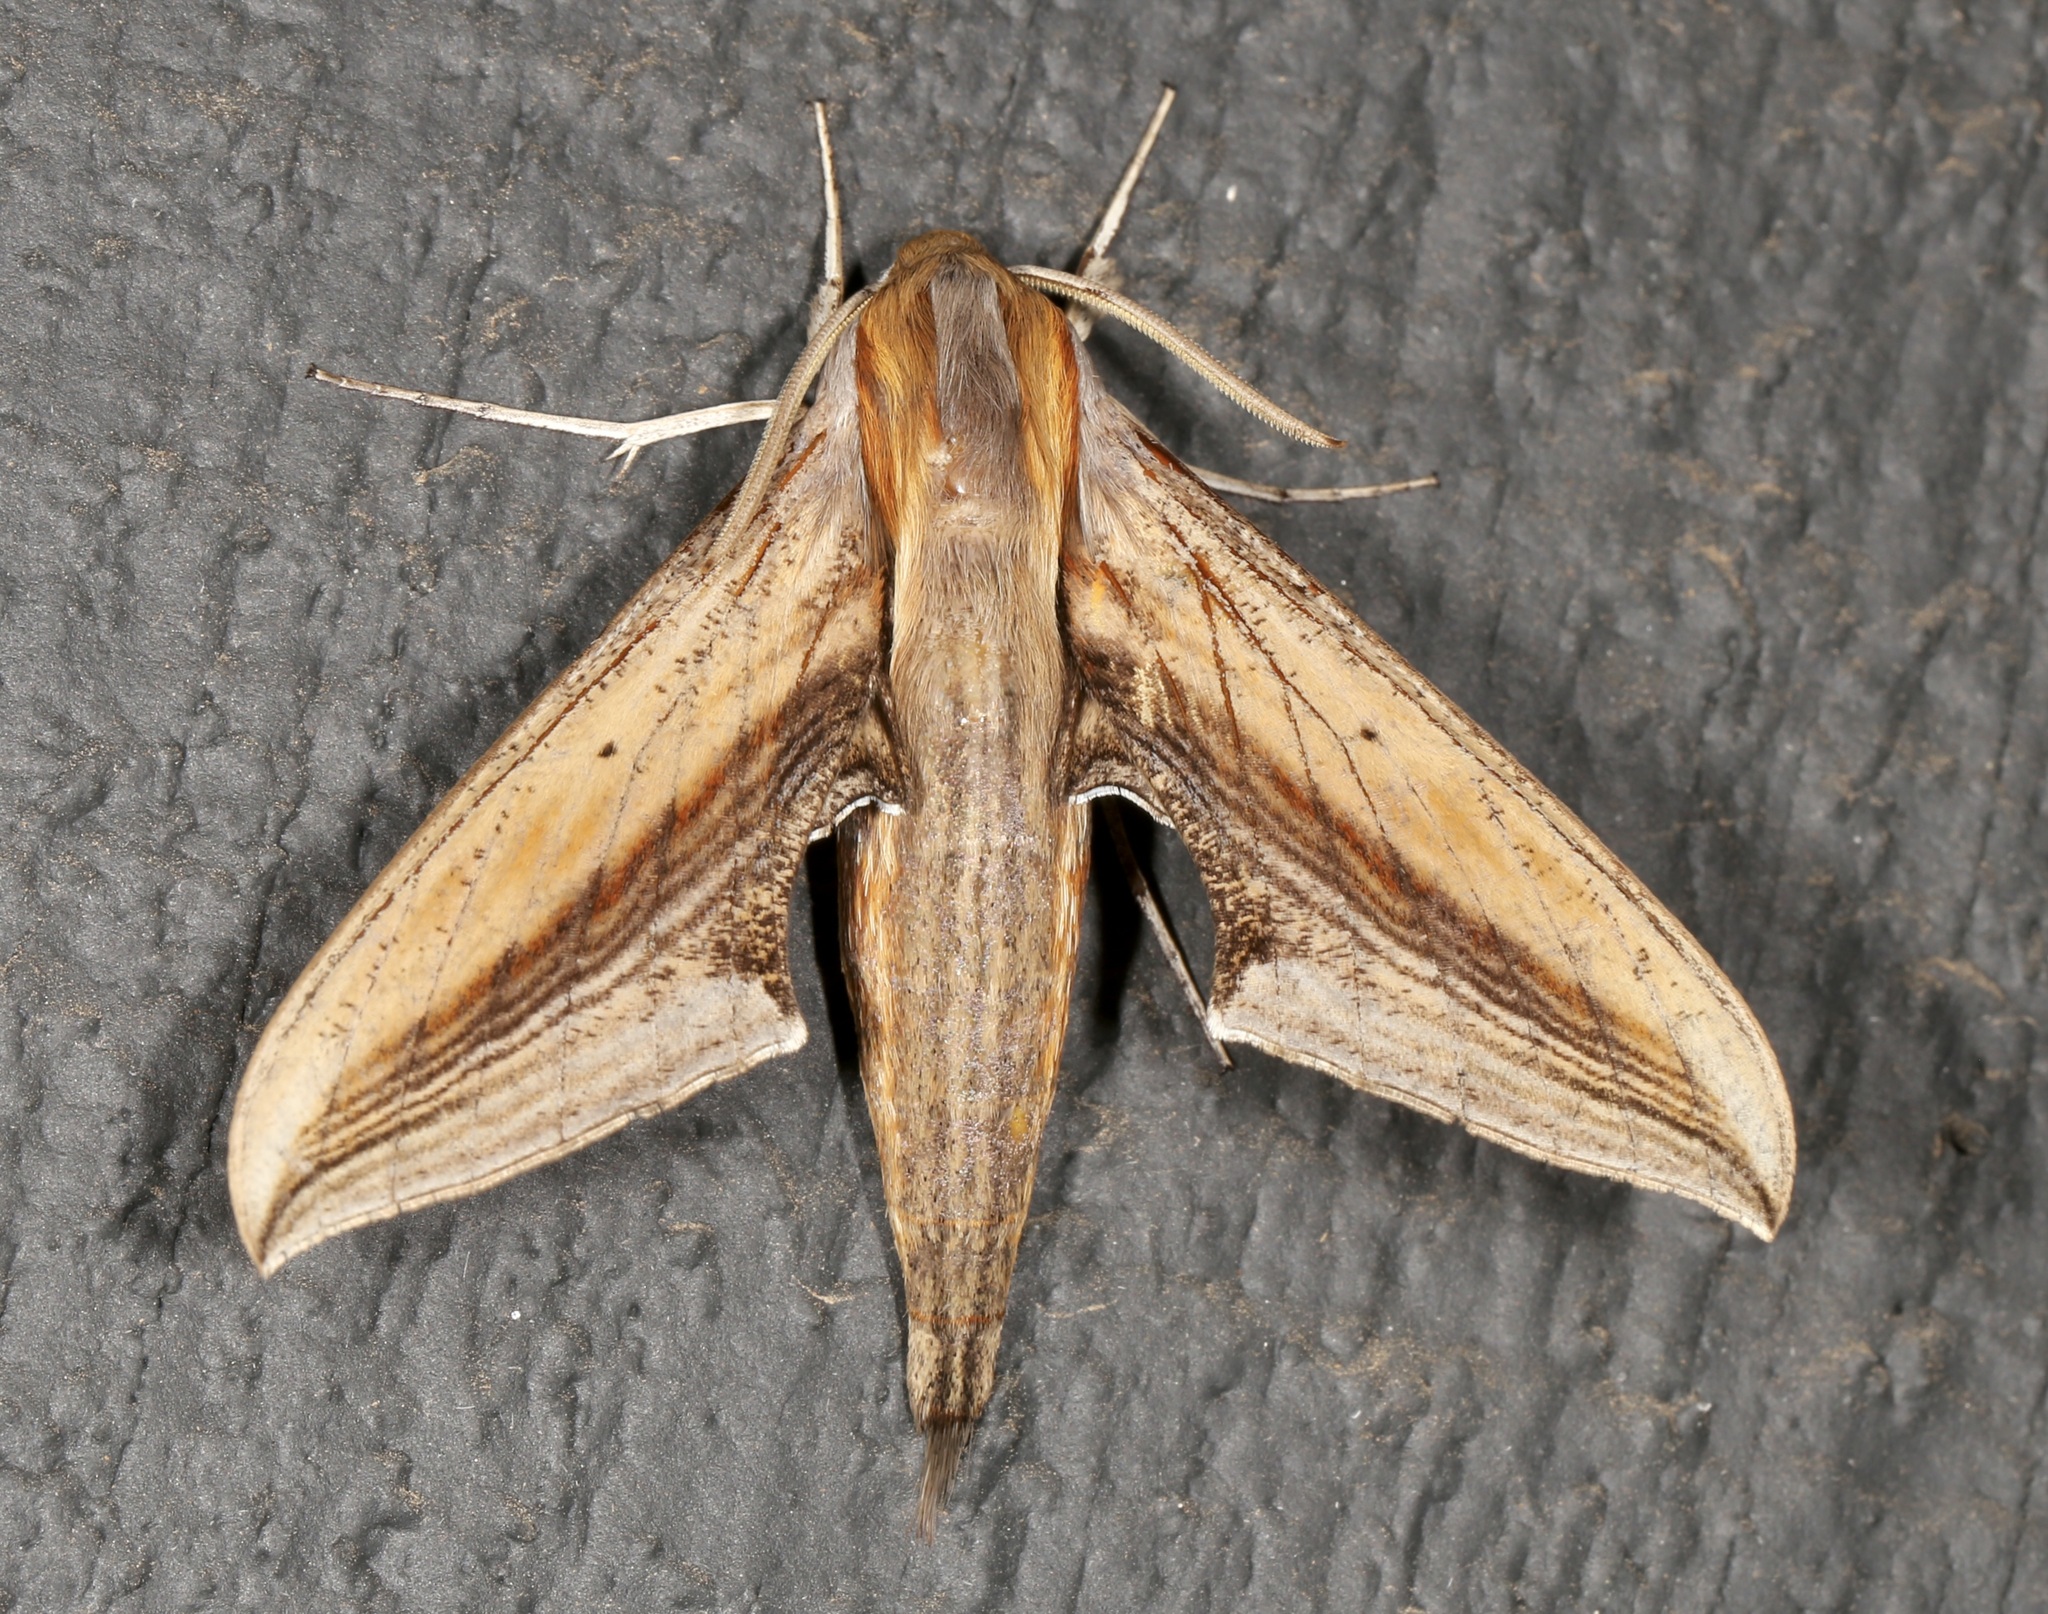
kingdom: Animalia
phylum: Arthropoda
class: Insecta
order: Lepidoptera
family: Sphingidae
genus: Xylophanes
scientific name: Xylophanes falco
